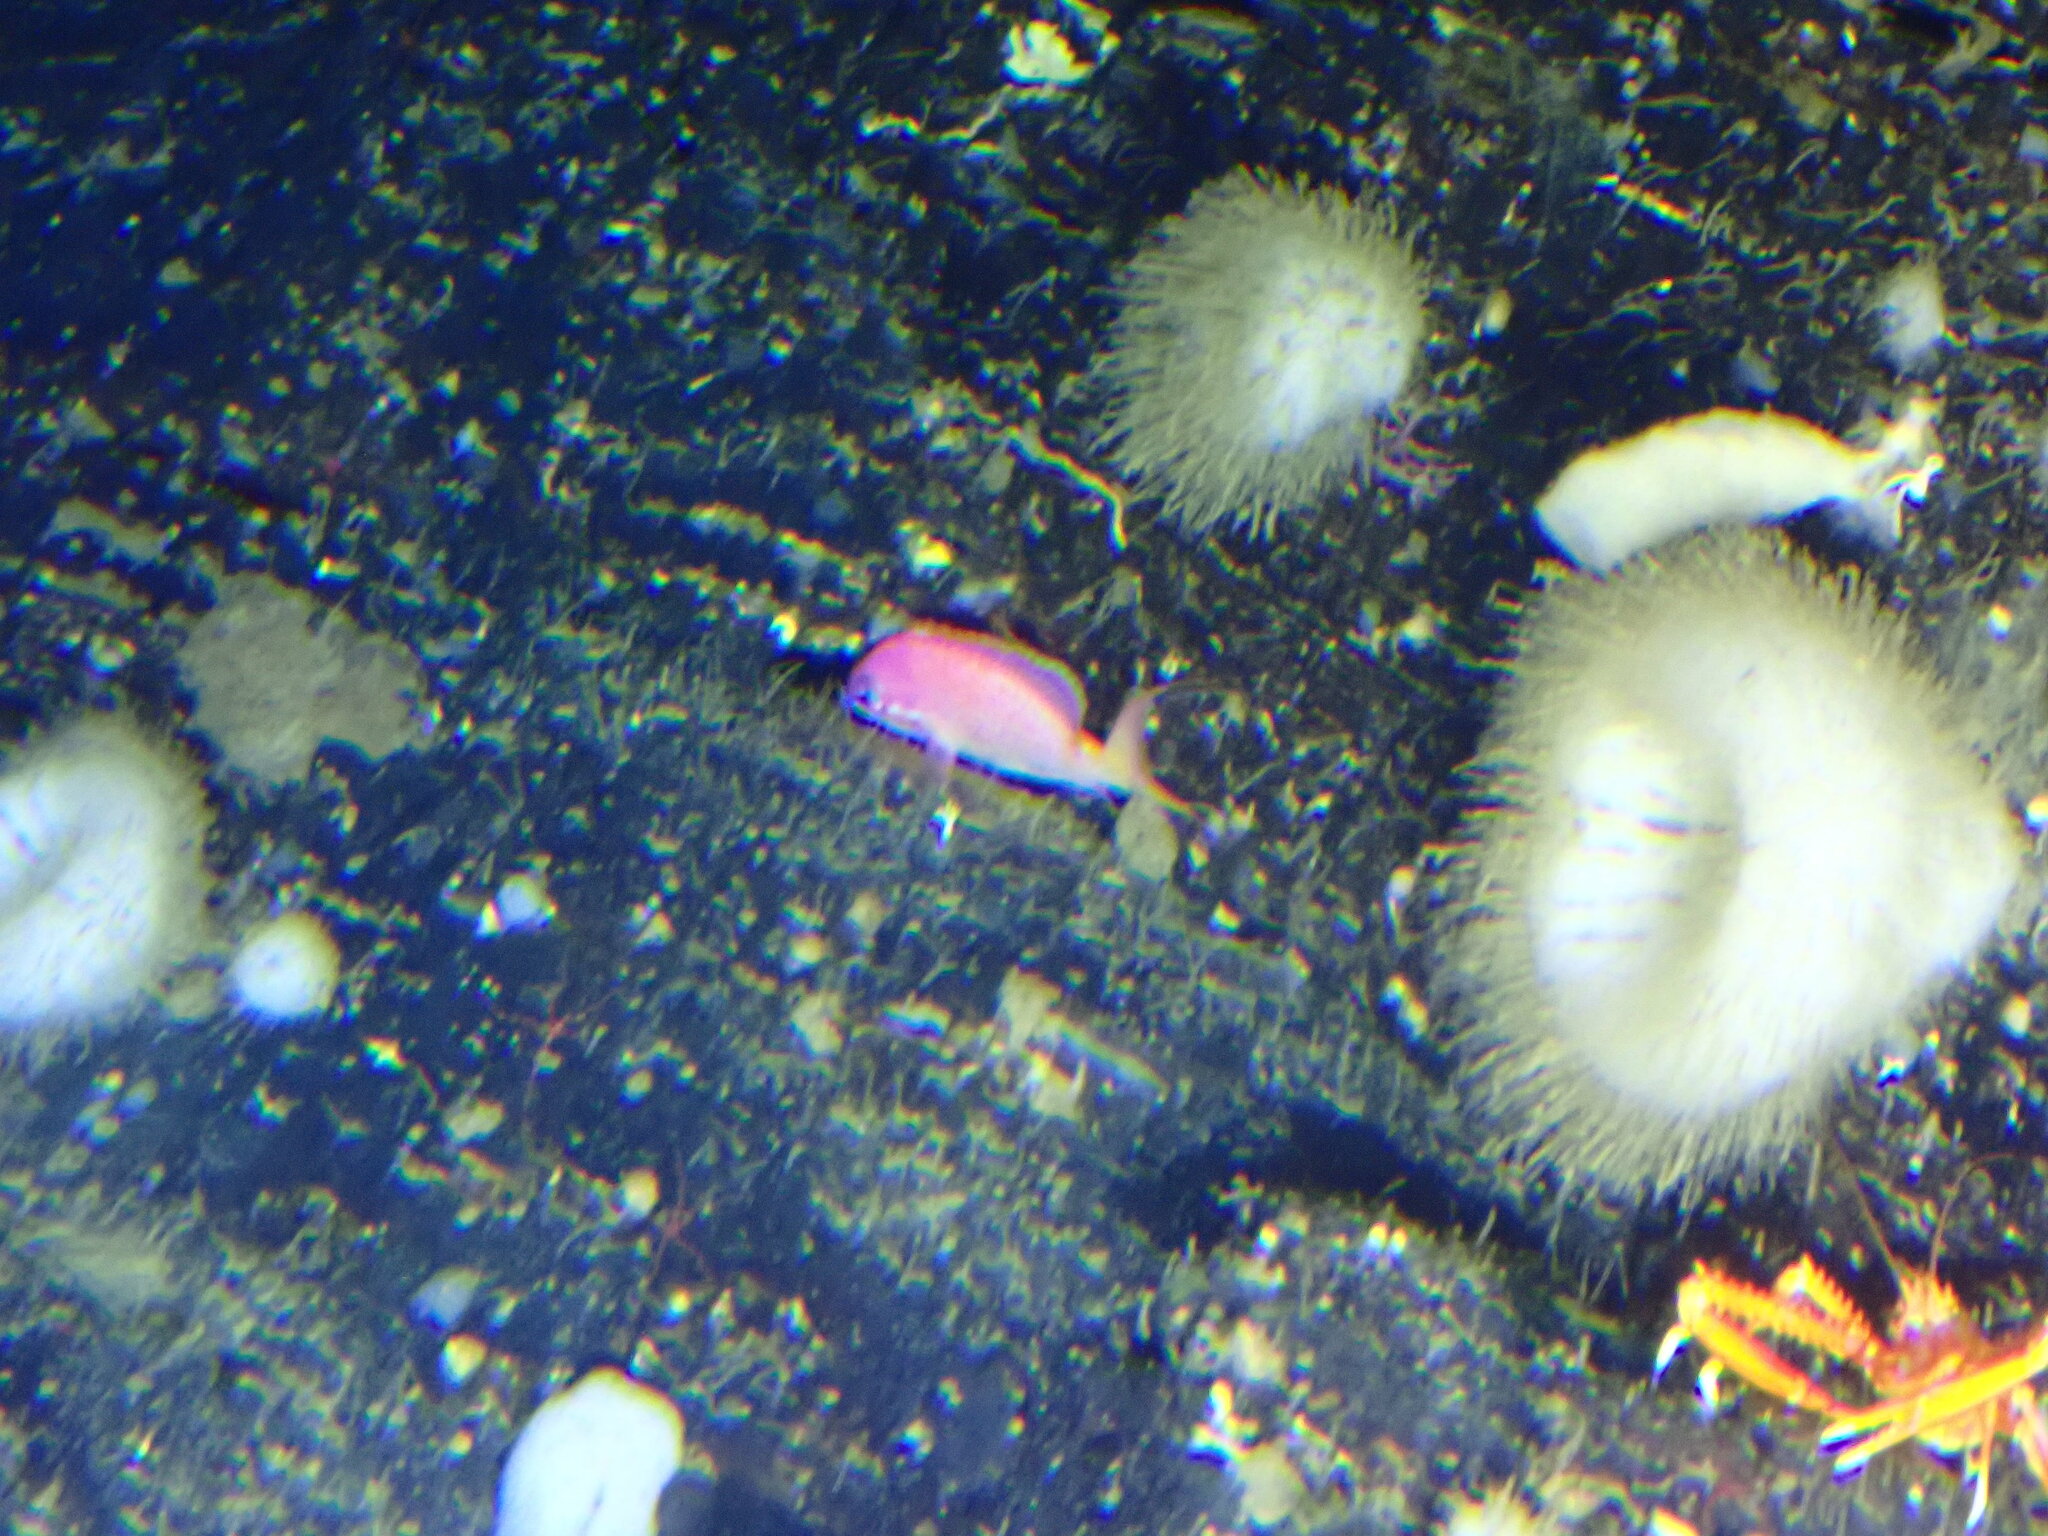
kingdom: Animalia
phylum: Chordata
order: Perciformes
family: Serranidae
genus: Anthias
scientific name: Anthias asperilinguis
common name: Jeweled gemfish
